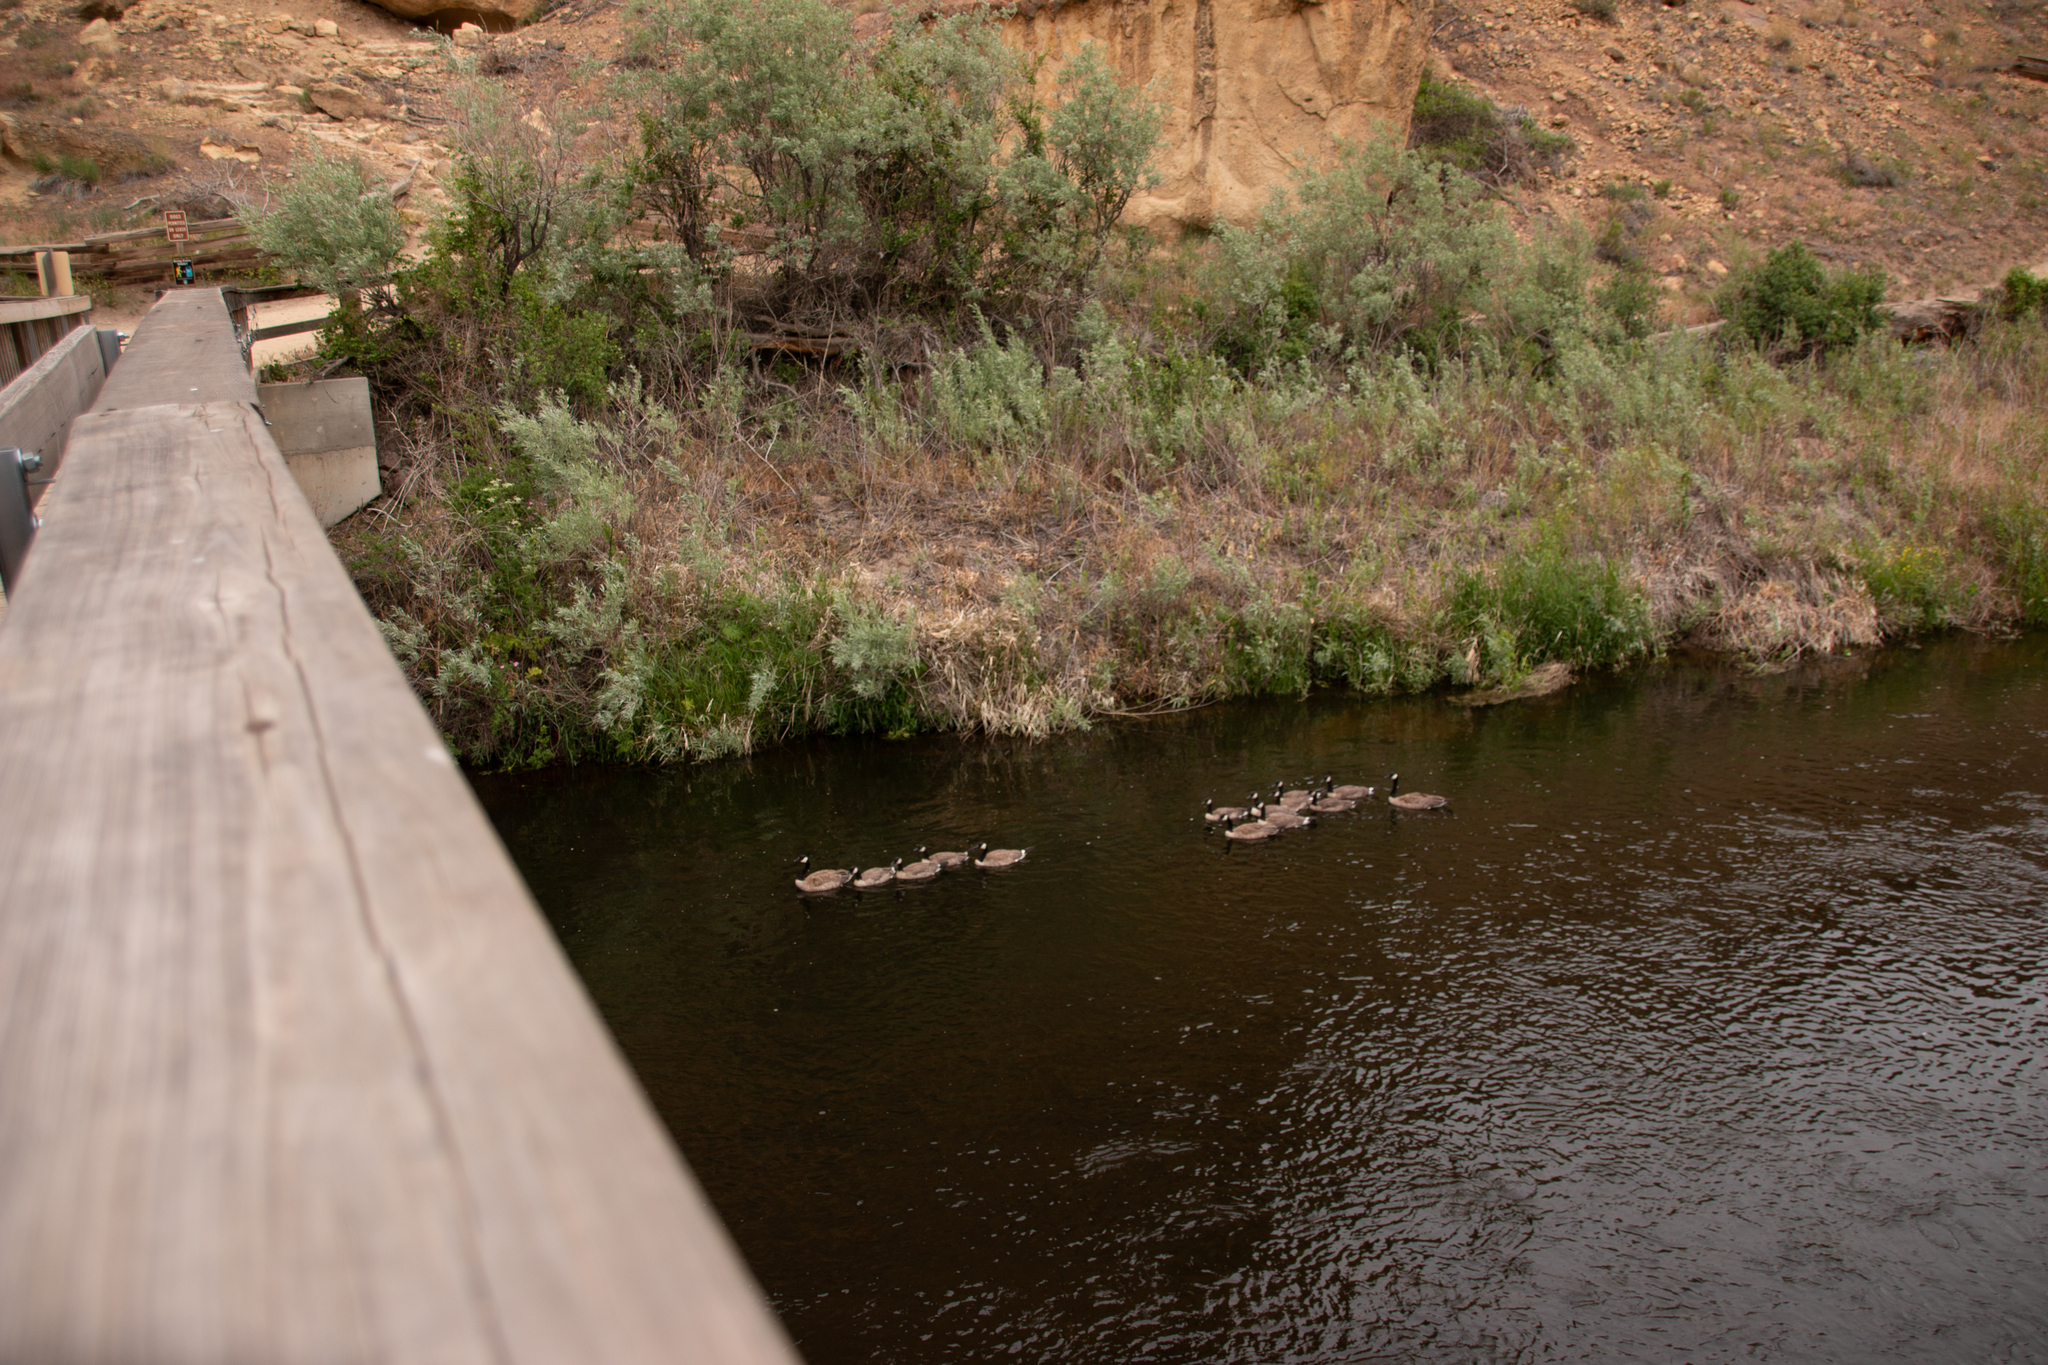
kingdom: Animalia
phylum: Chordata
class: Aves
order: Anseriformes
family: Anatidae
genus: Branta
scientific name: Branta canadensis
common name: Canada goose
